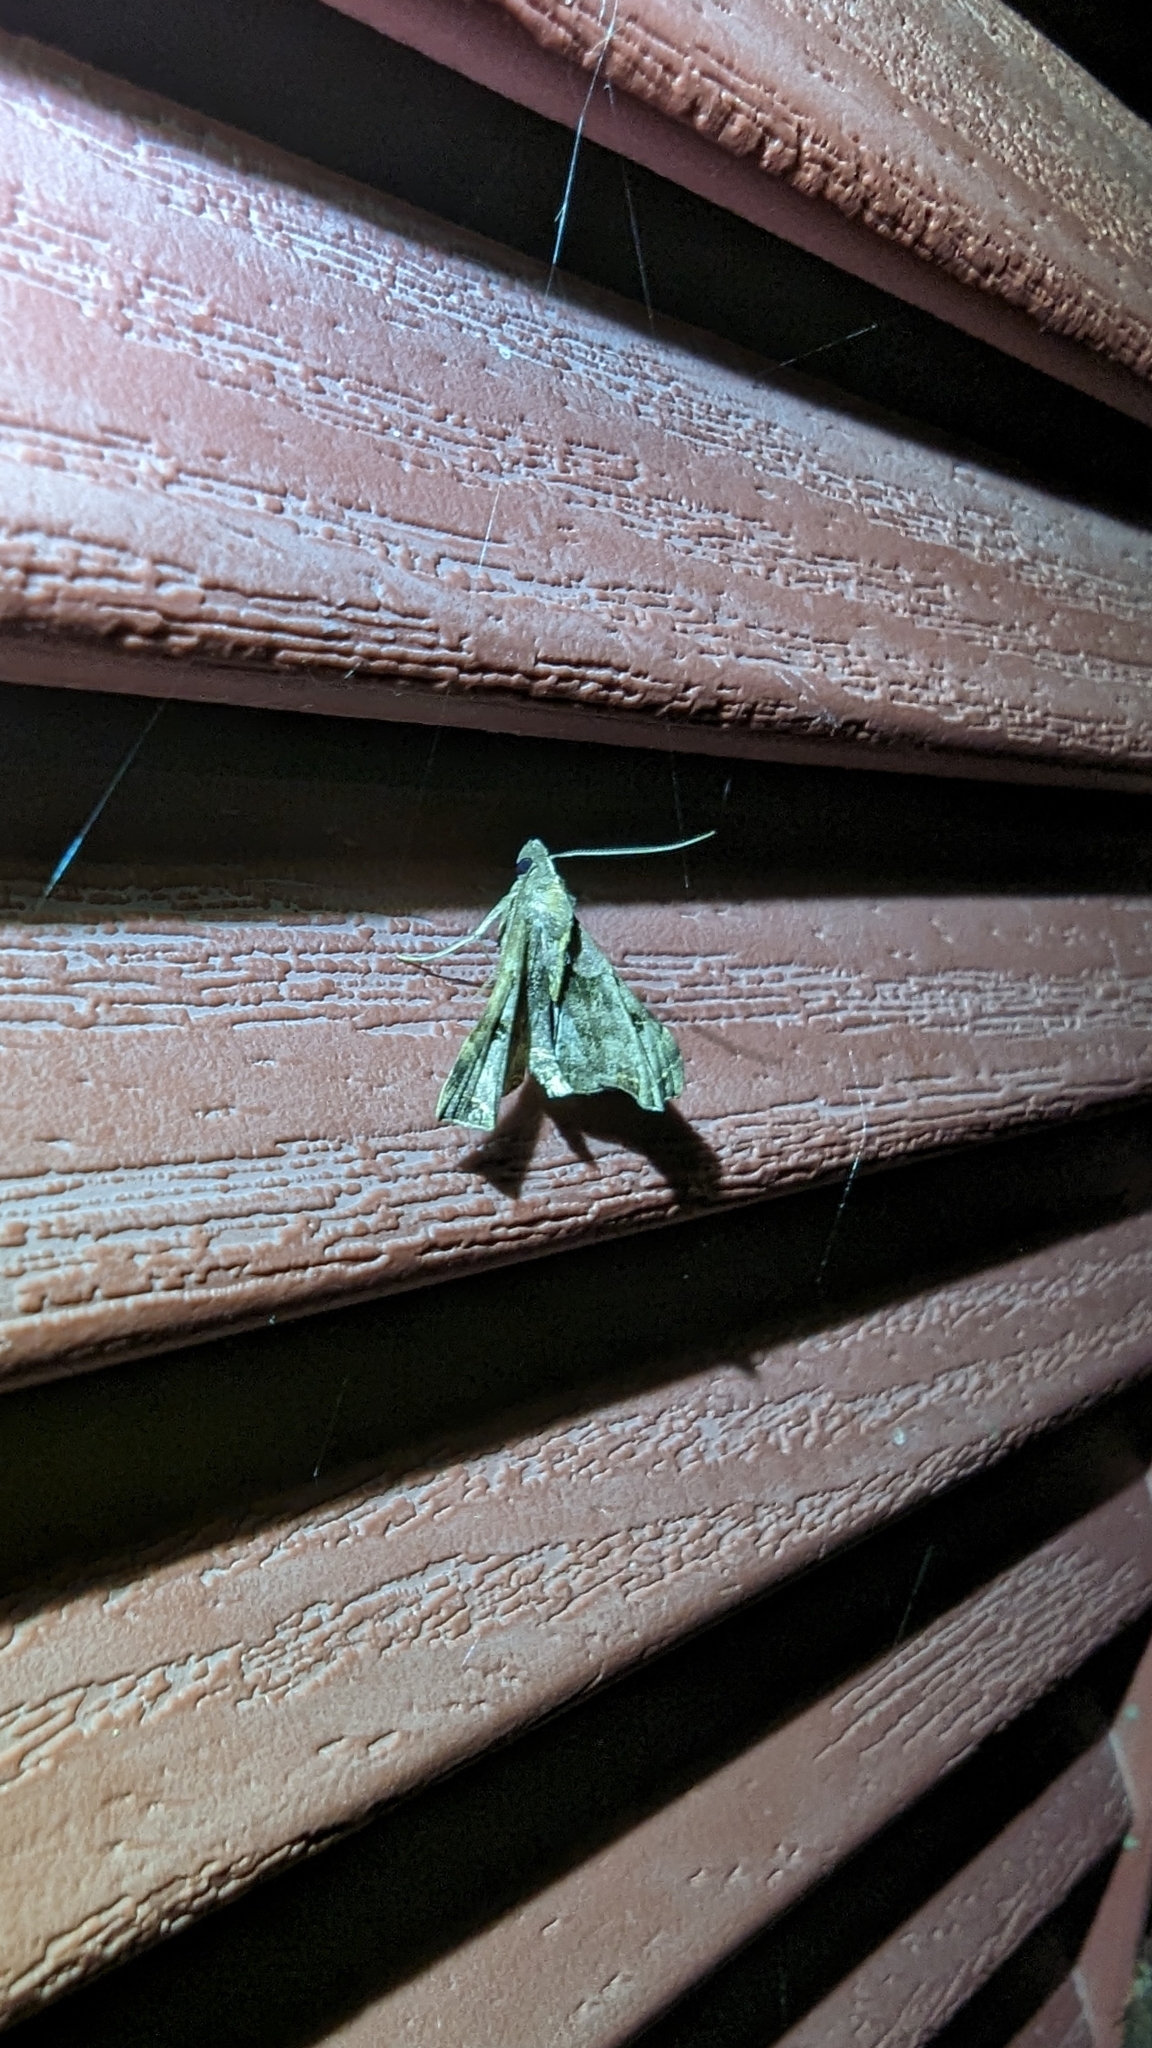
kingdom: Animalia
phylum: Arthropoda
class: Insecta
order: Lepidoptera
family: Erebidae
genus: Palthis
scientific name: Palthis asopialis
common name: Faint-spotted palthis moth
